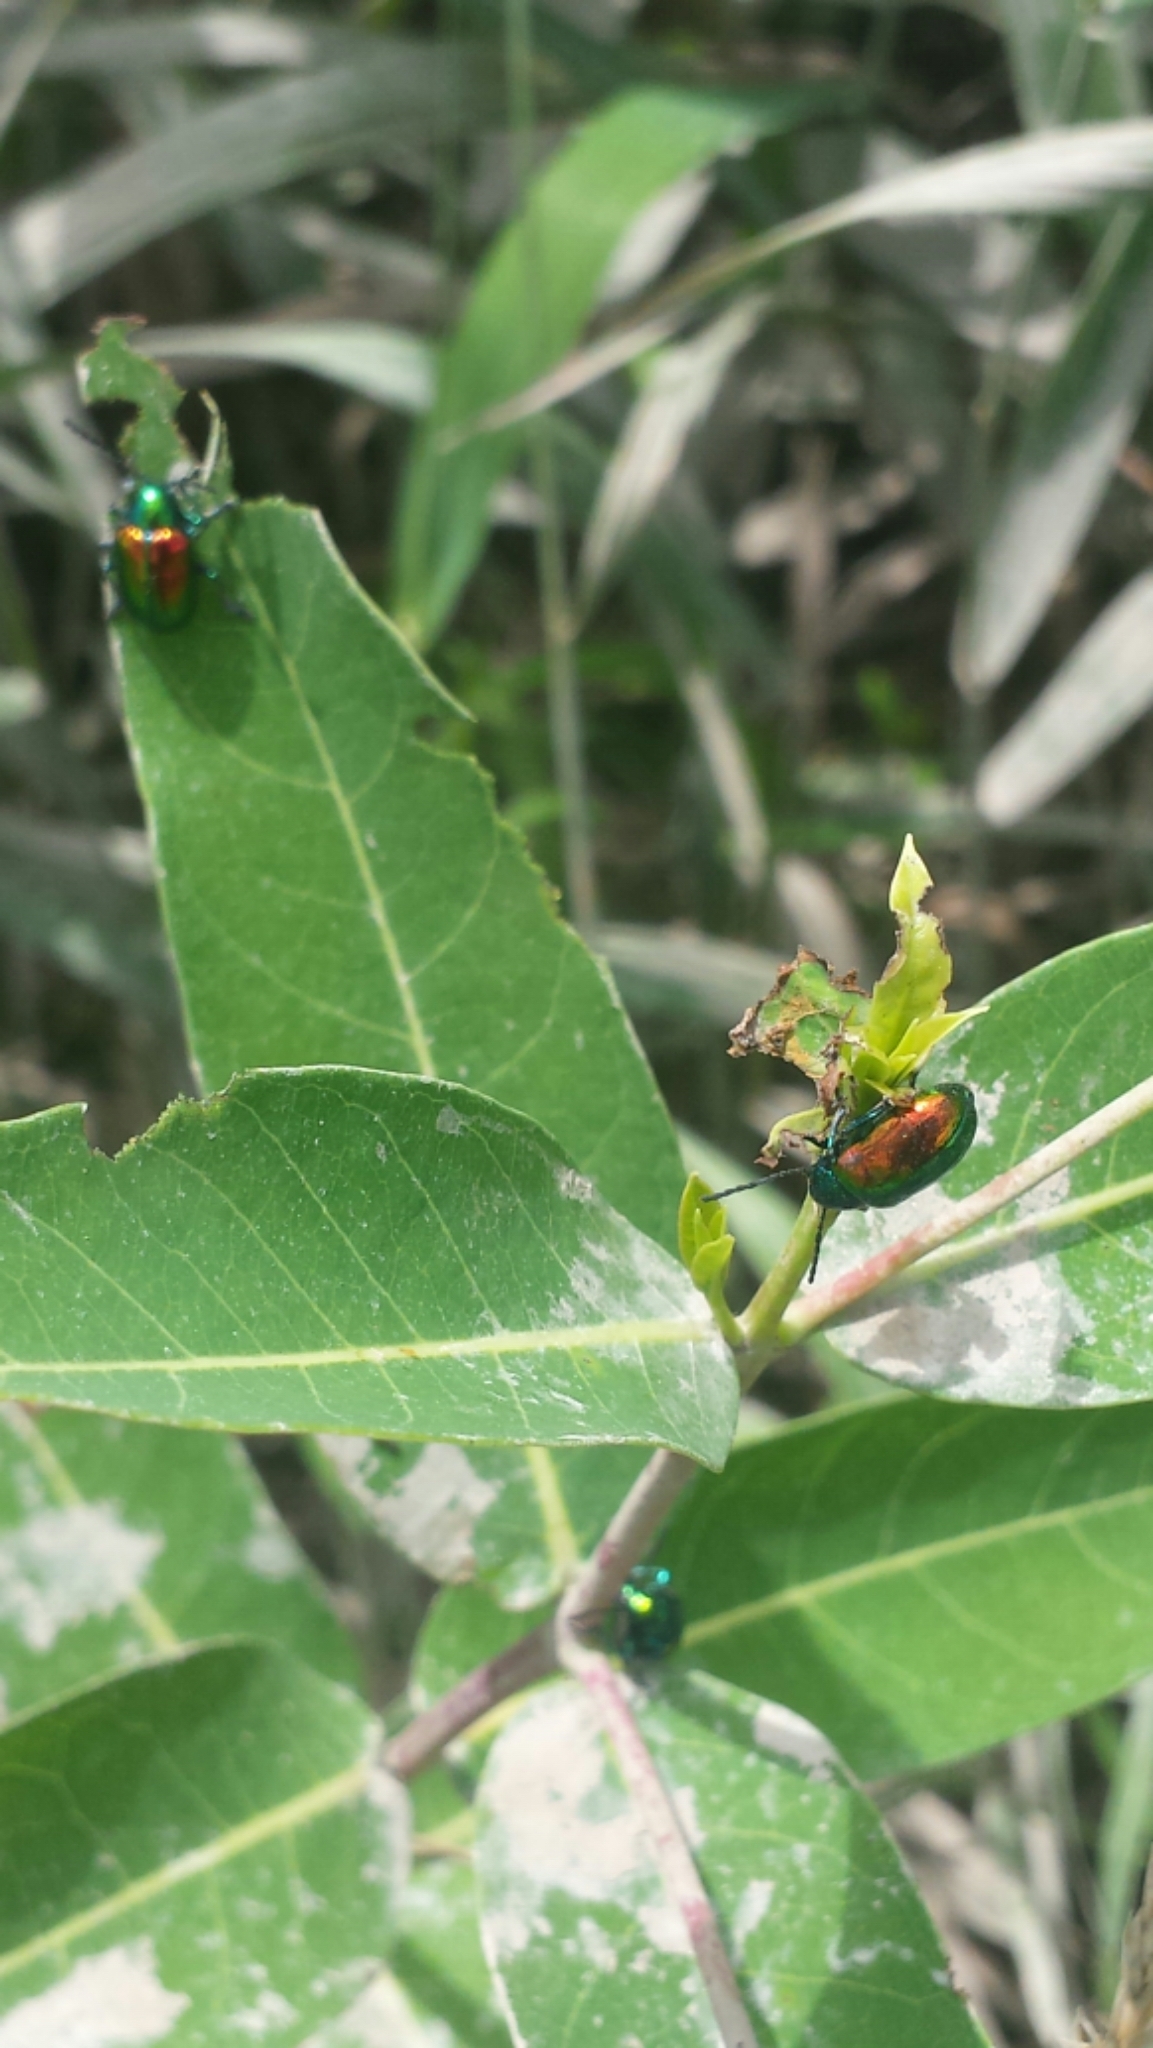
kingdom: Animalia
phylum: Arthropoda
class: Insecta
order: Coleoptera
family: Chrysomelidae
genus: Chrysochus
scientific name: Chrysochus auratus
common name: Dogbane leaf beetle
